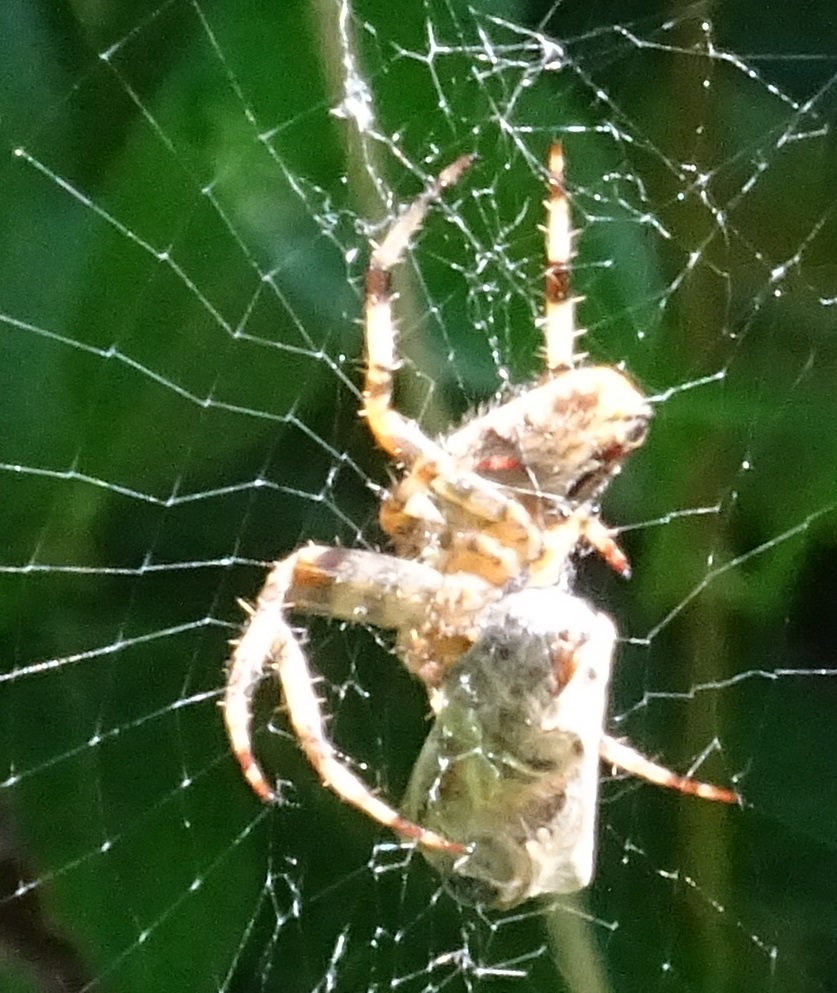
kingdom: Animalia
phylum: Arthropoda
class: Arachnida
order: Araneae
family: Araneidae
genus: Araneus
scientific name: Araneus diadematus
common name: Cross orbweaver
